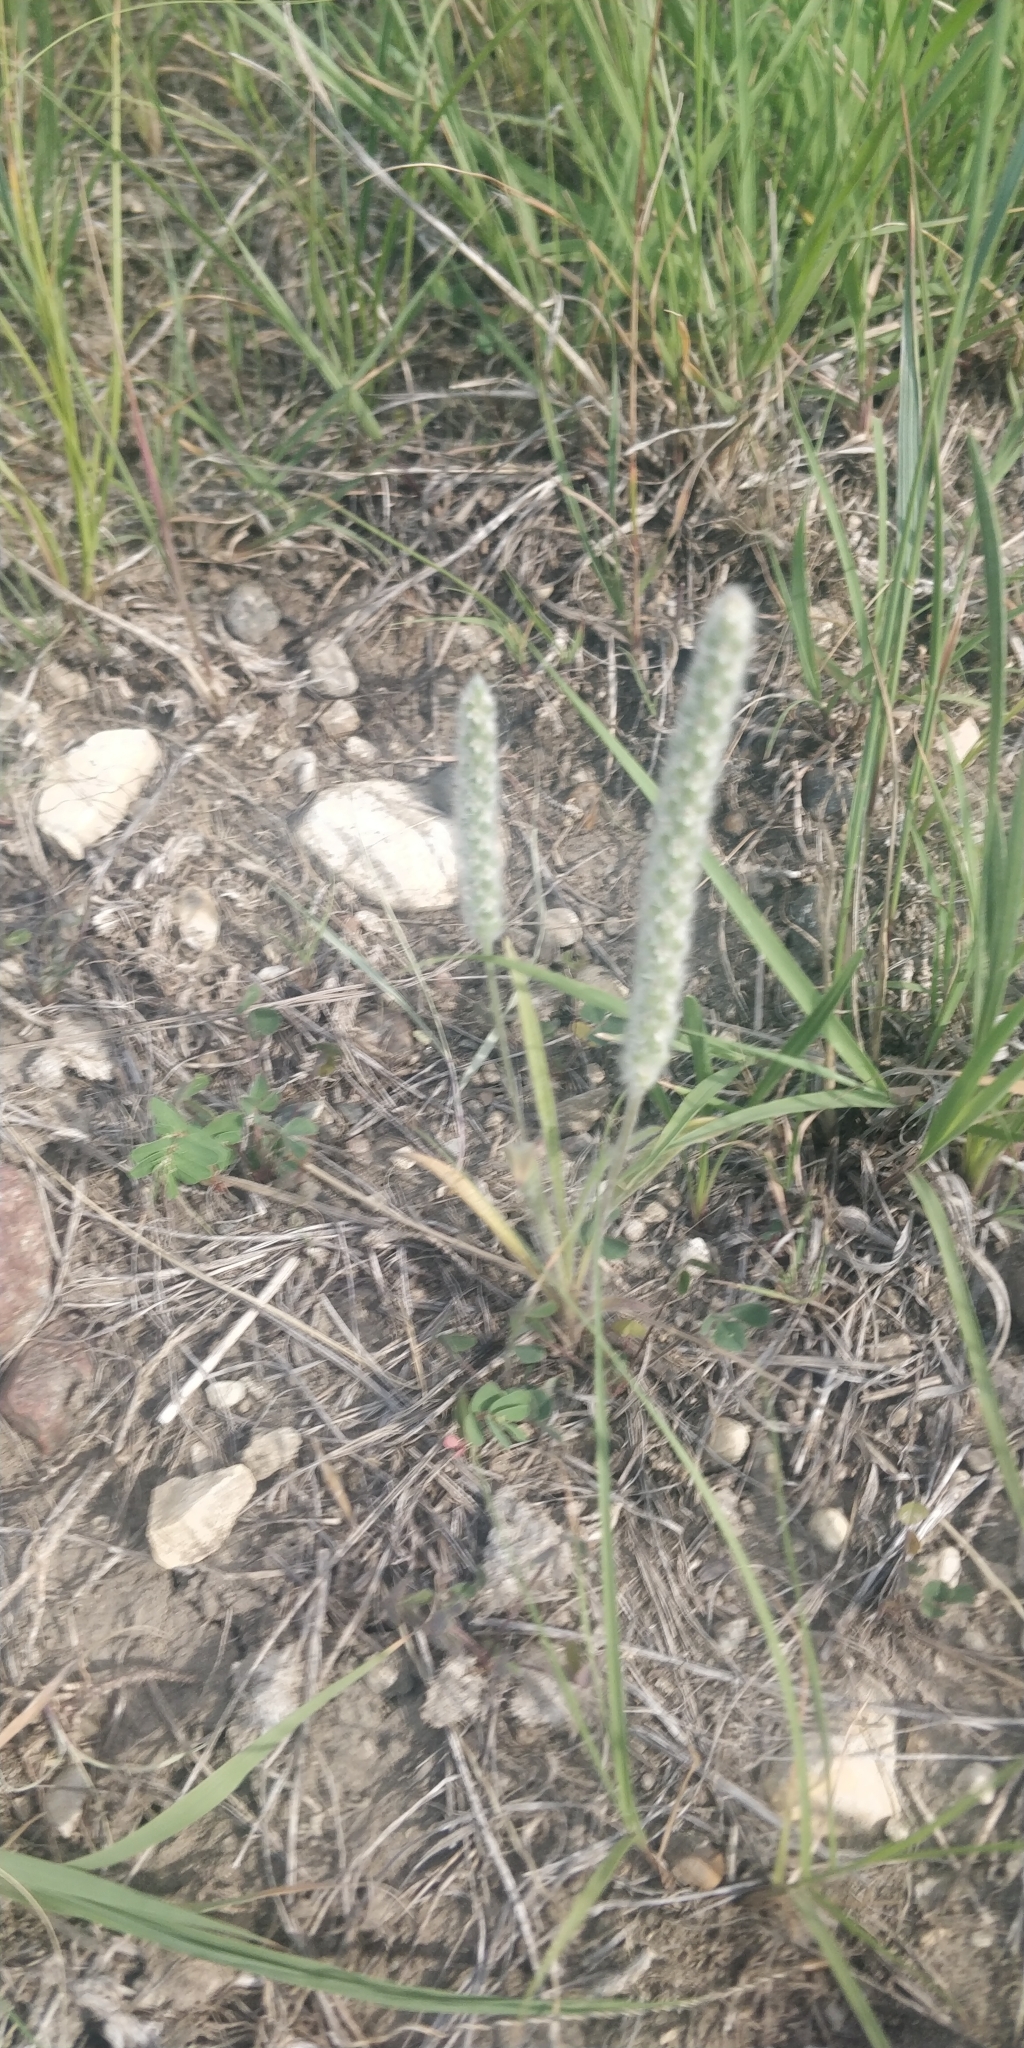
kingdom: Plantae
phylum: Tracheophyta
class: Magnoliopsida
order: Lamiales
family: Plantaginaceae
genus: Plantago
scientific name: Plantago patagonica
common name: Patagonia indian-wheat
